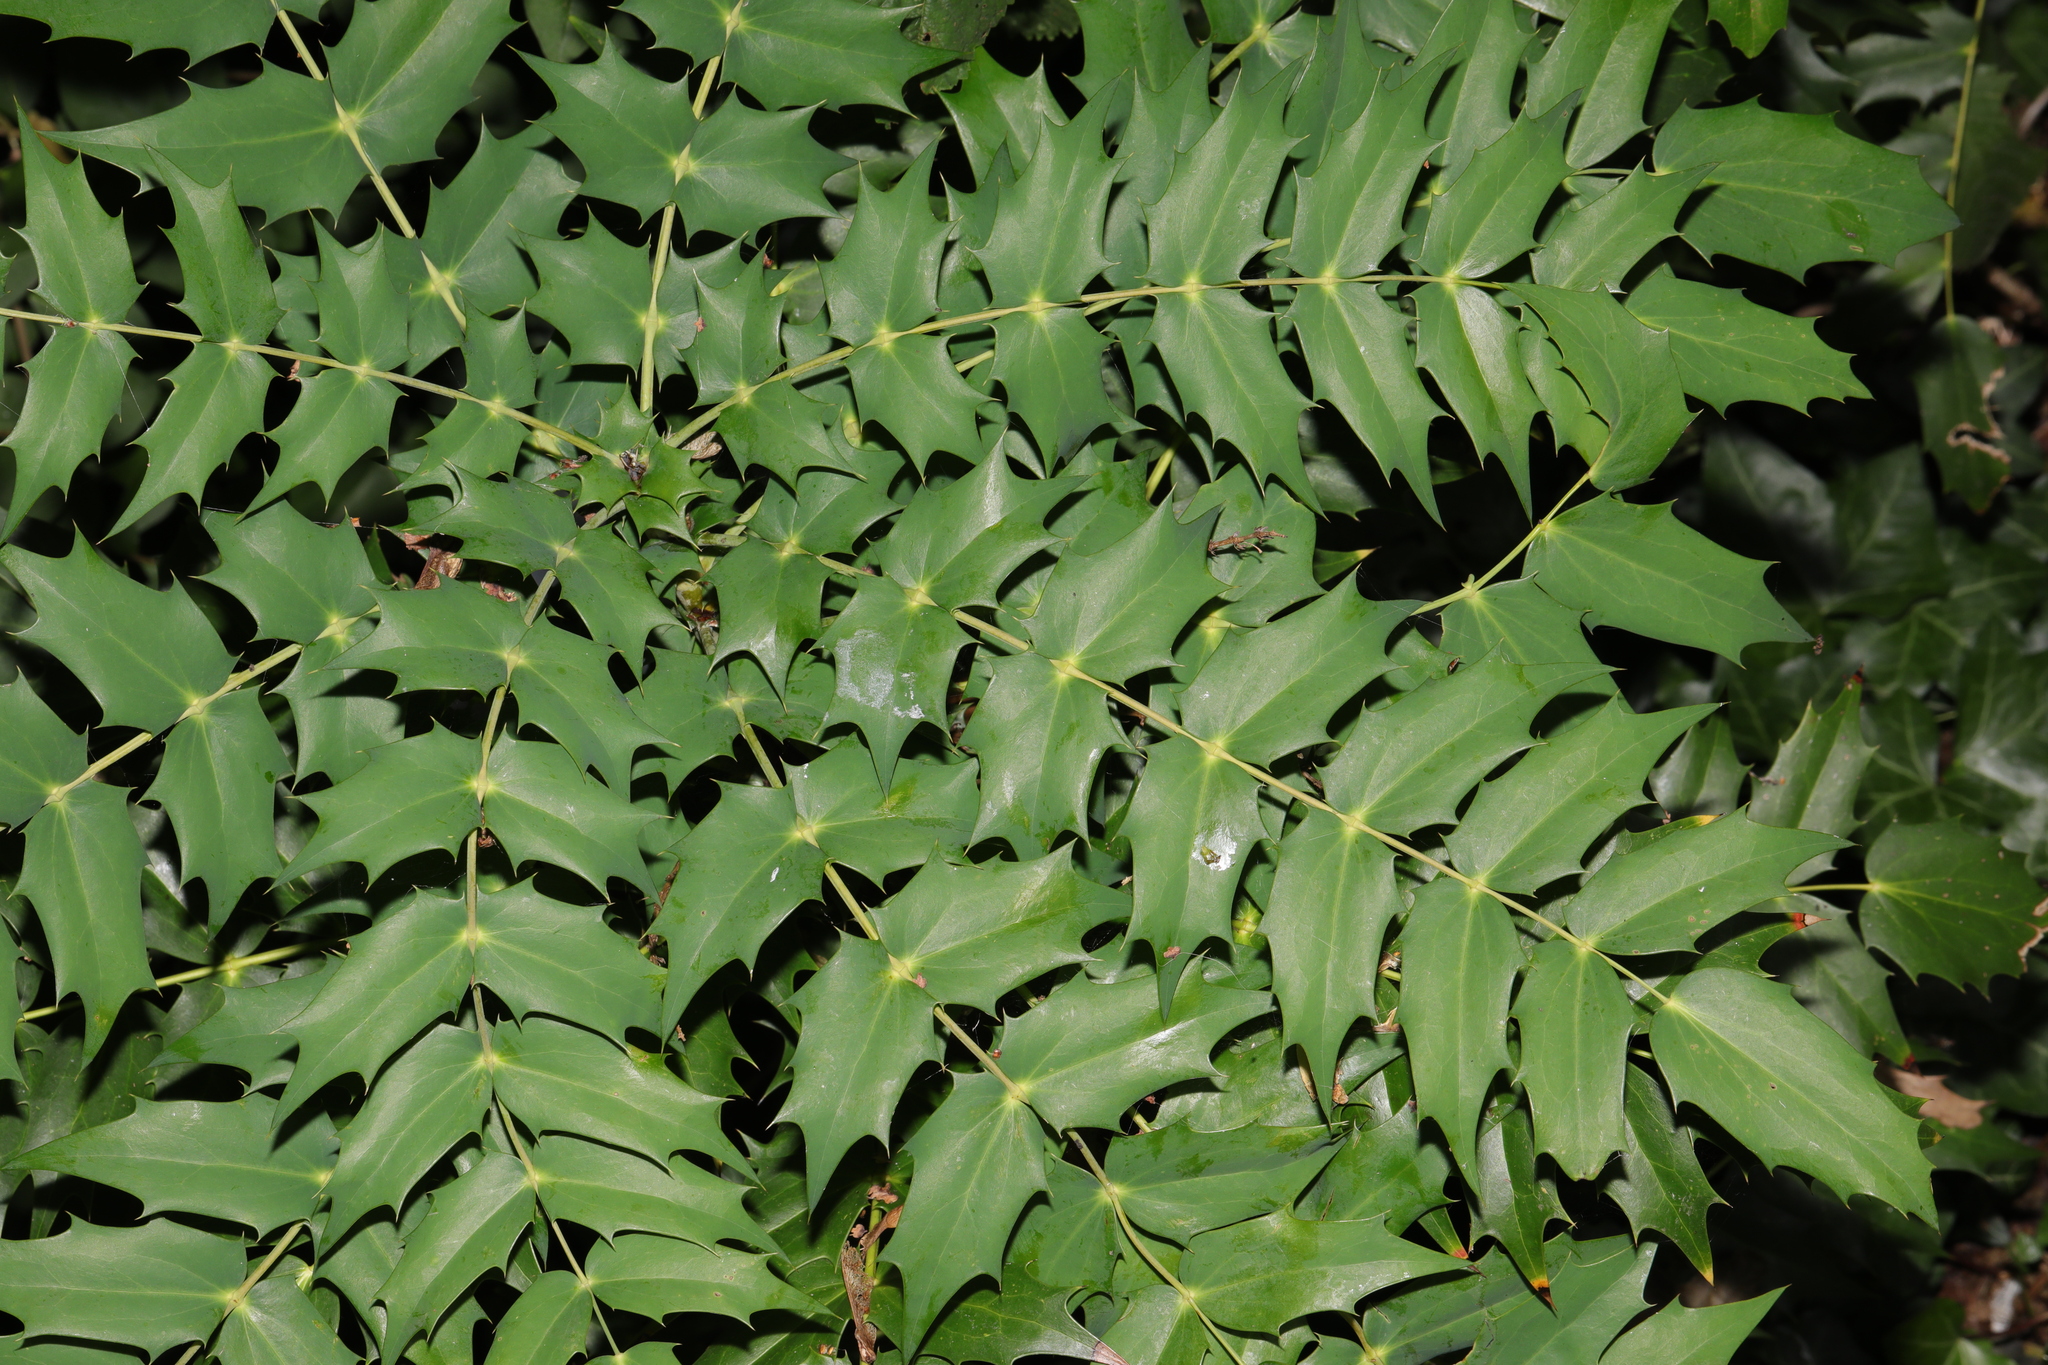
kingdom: Plantae
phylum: Tracheophyta
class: Magnoliopsida
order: Ranunculales
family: Berberidaceae
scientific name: Berberidaceae
